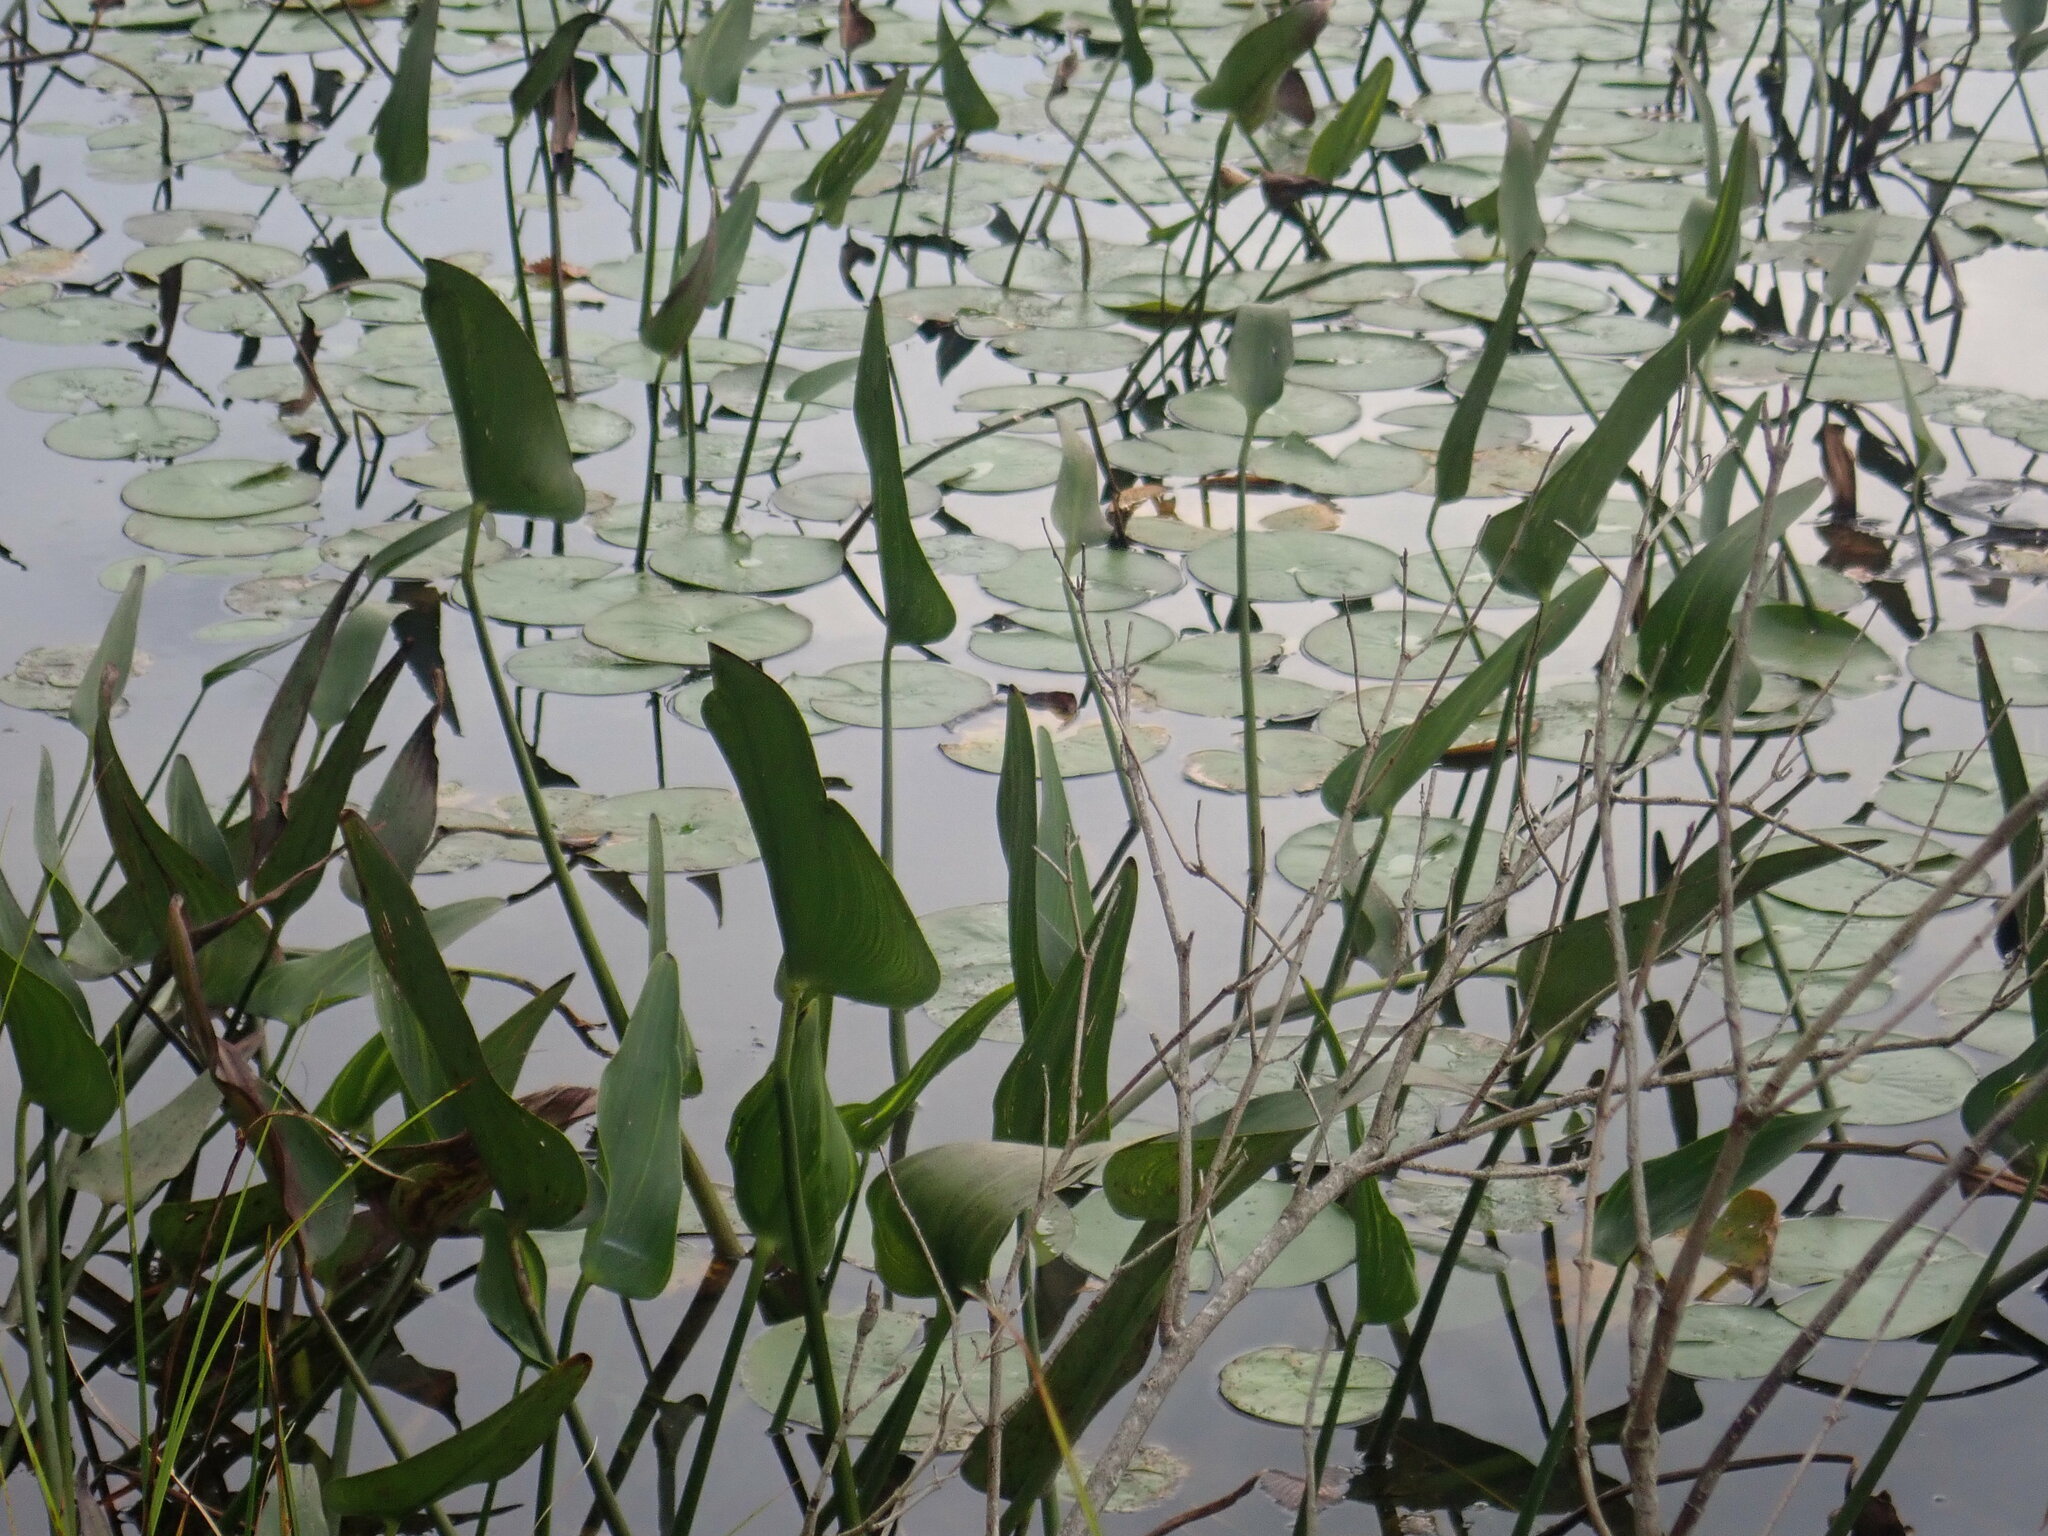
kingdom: Plantae
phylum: Tracheophyta
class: Liliopsida
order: Commelinales
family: Pontederiaceae
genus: Pontederia
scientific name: Pontederia cordata
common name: Pickerelweed
